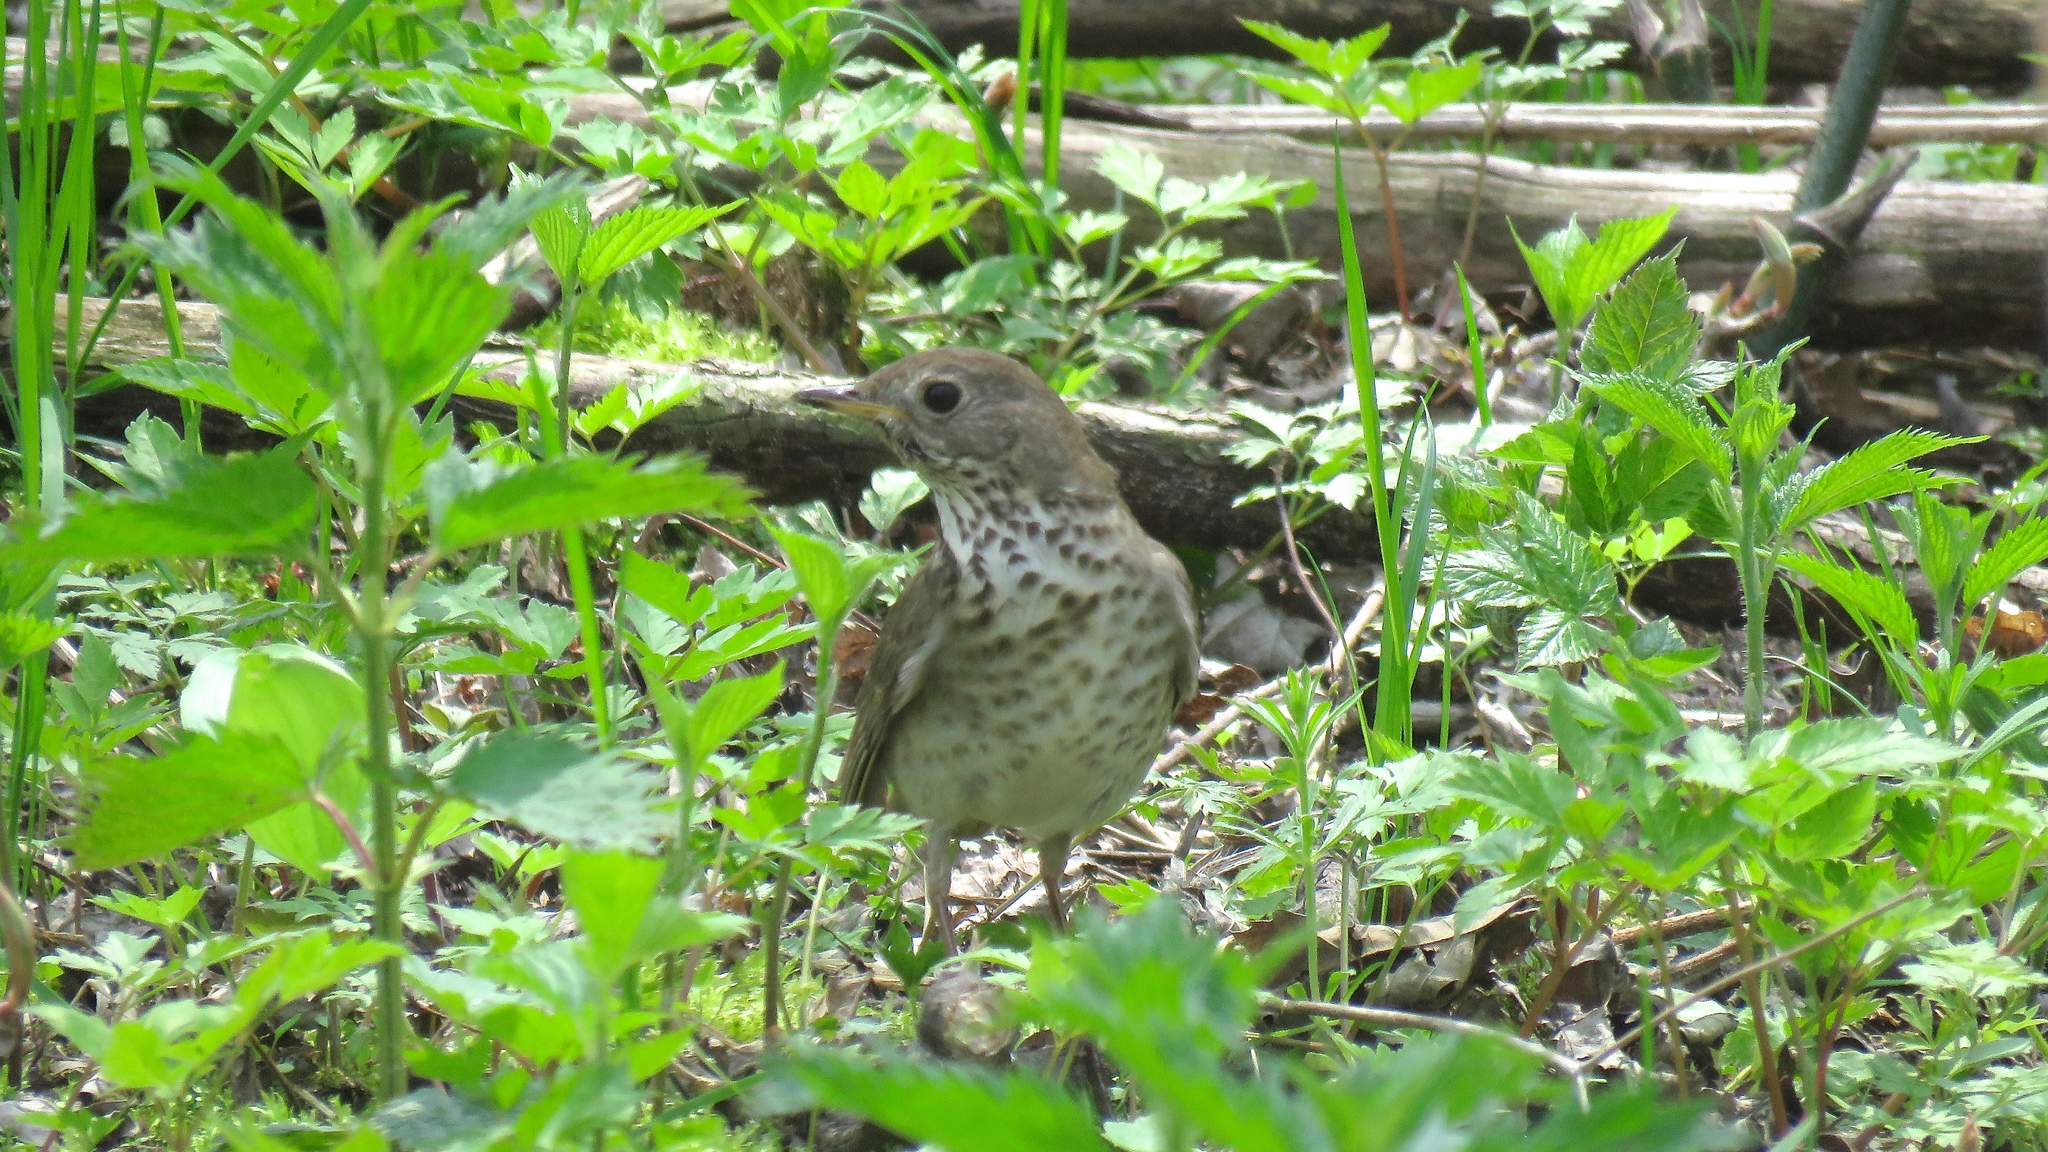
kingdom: Animalia
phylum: Chordata
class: Aves
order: Passeriformes
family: Turdidae
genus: Catharus
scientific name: Catharus minimus
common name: Grey-cheeked thrush
